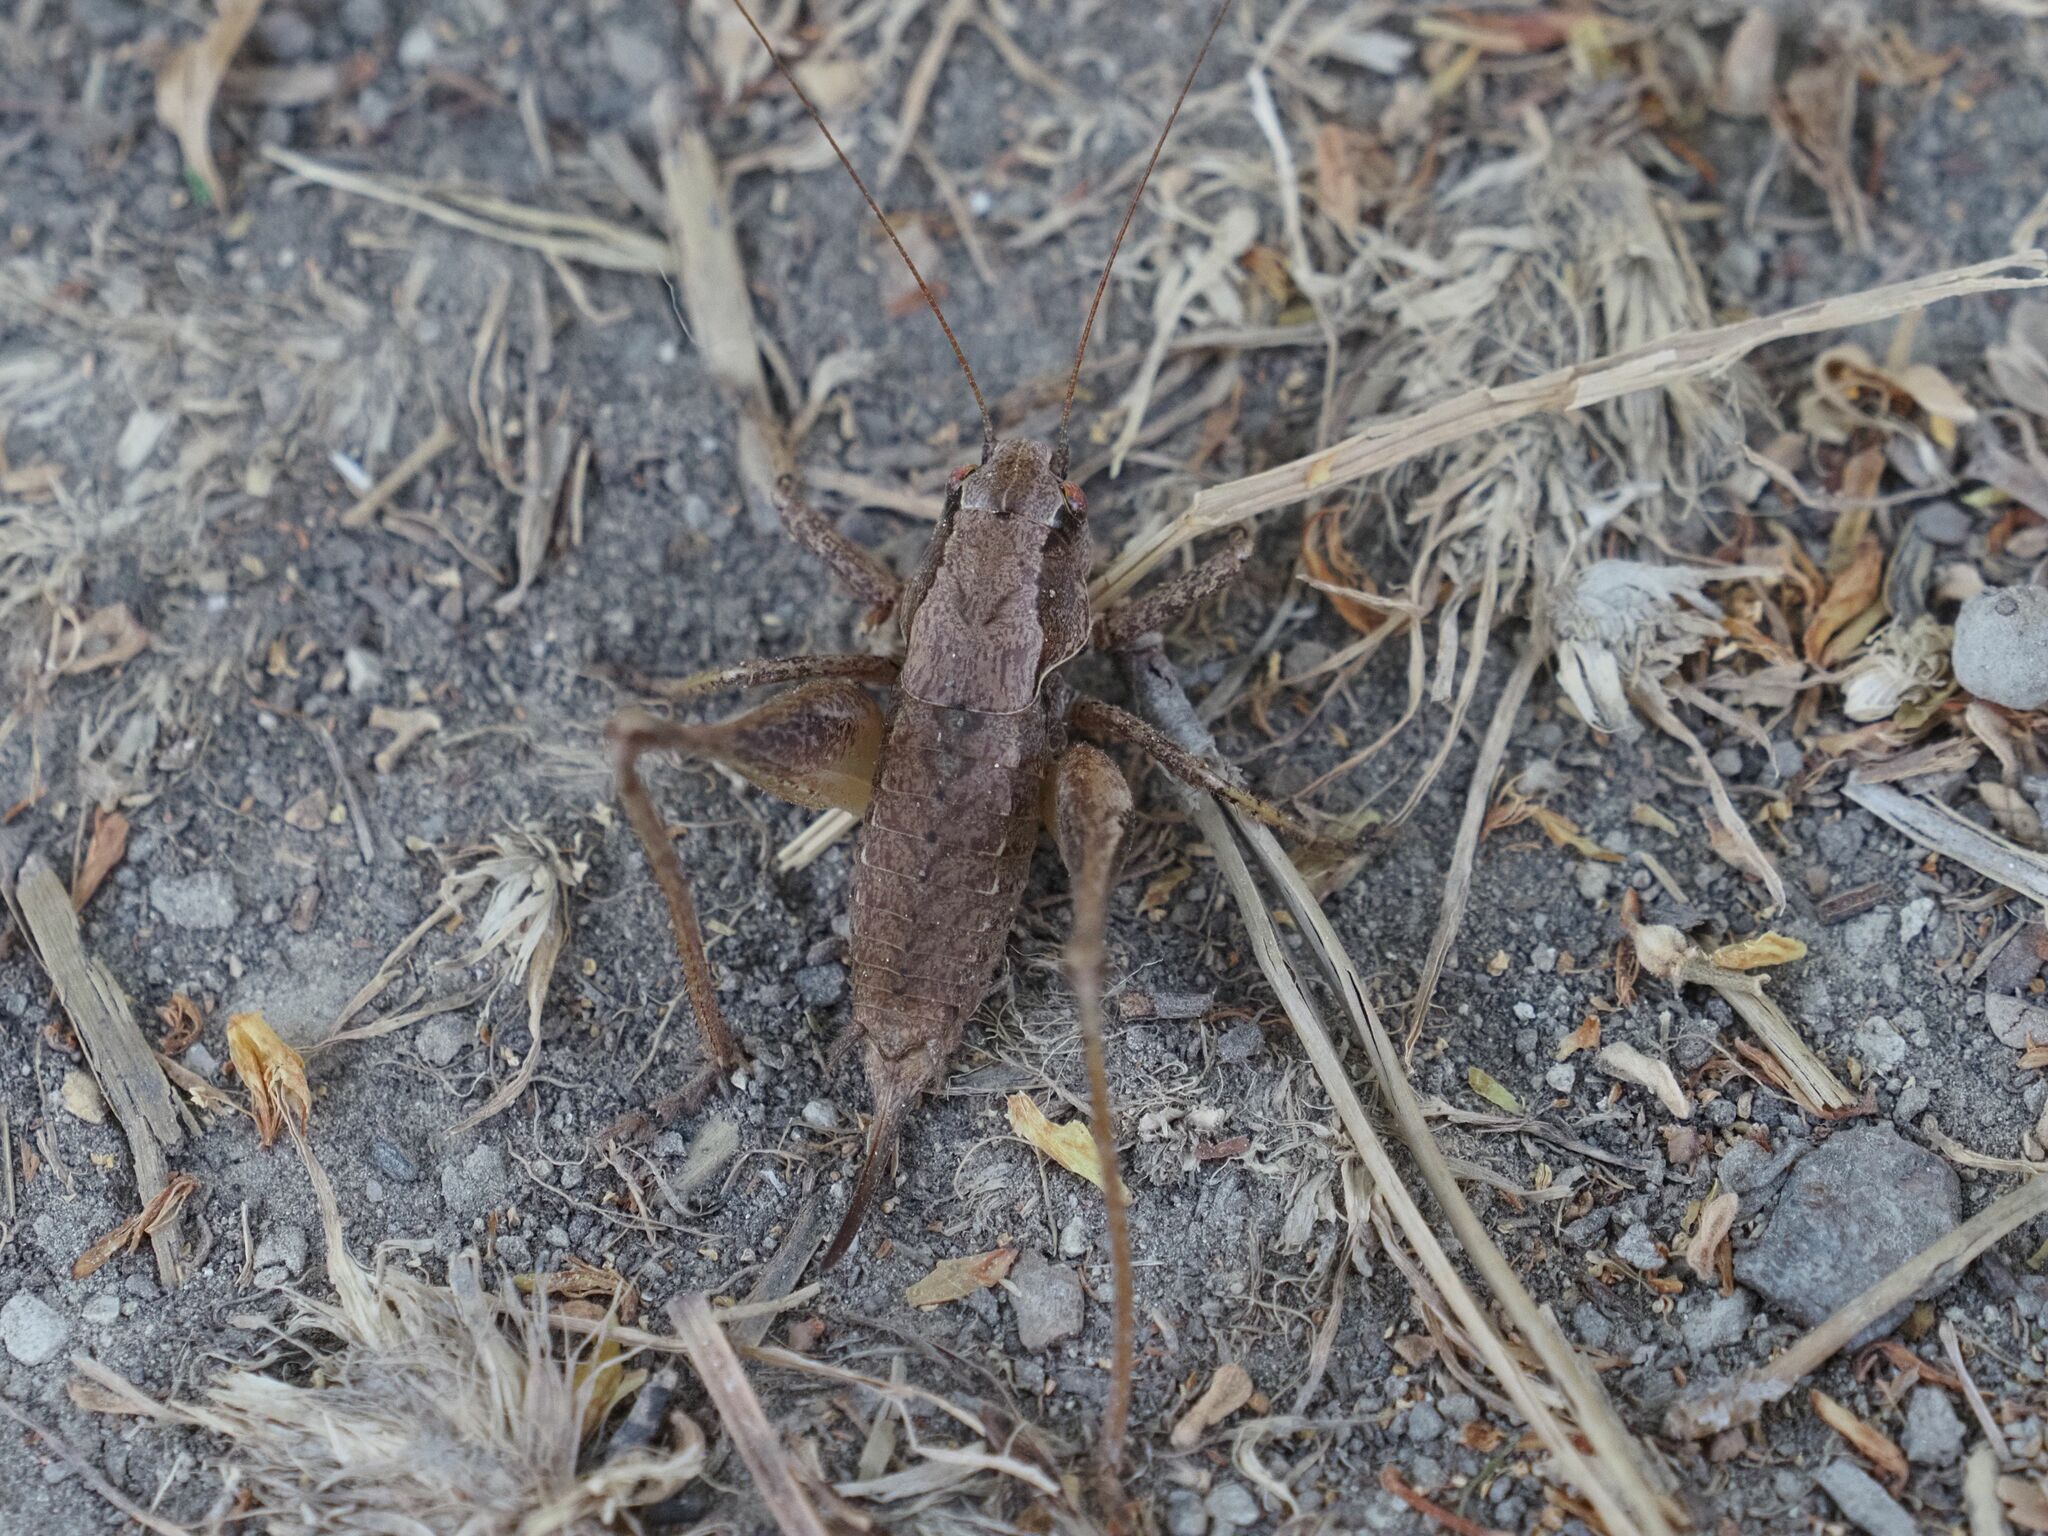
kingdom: Animalia
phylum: Arthropoda
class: Insecta
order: Orthoptera
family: Tettigoniidae
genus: Pholidoptera
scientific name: Pholidoptera griseoaptera
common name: Dark bush-cricket
